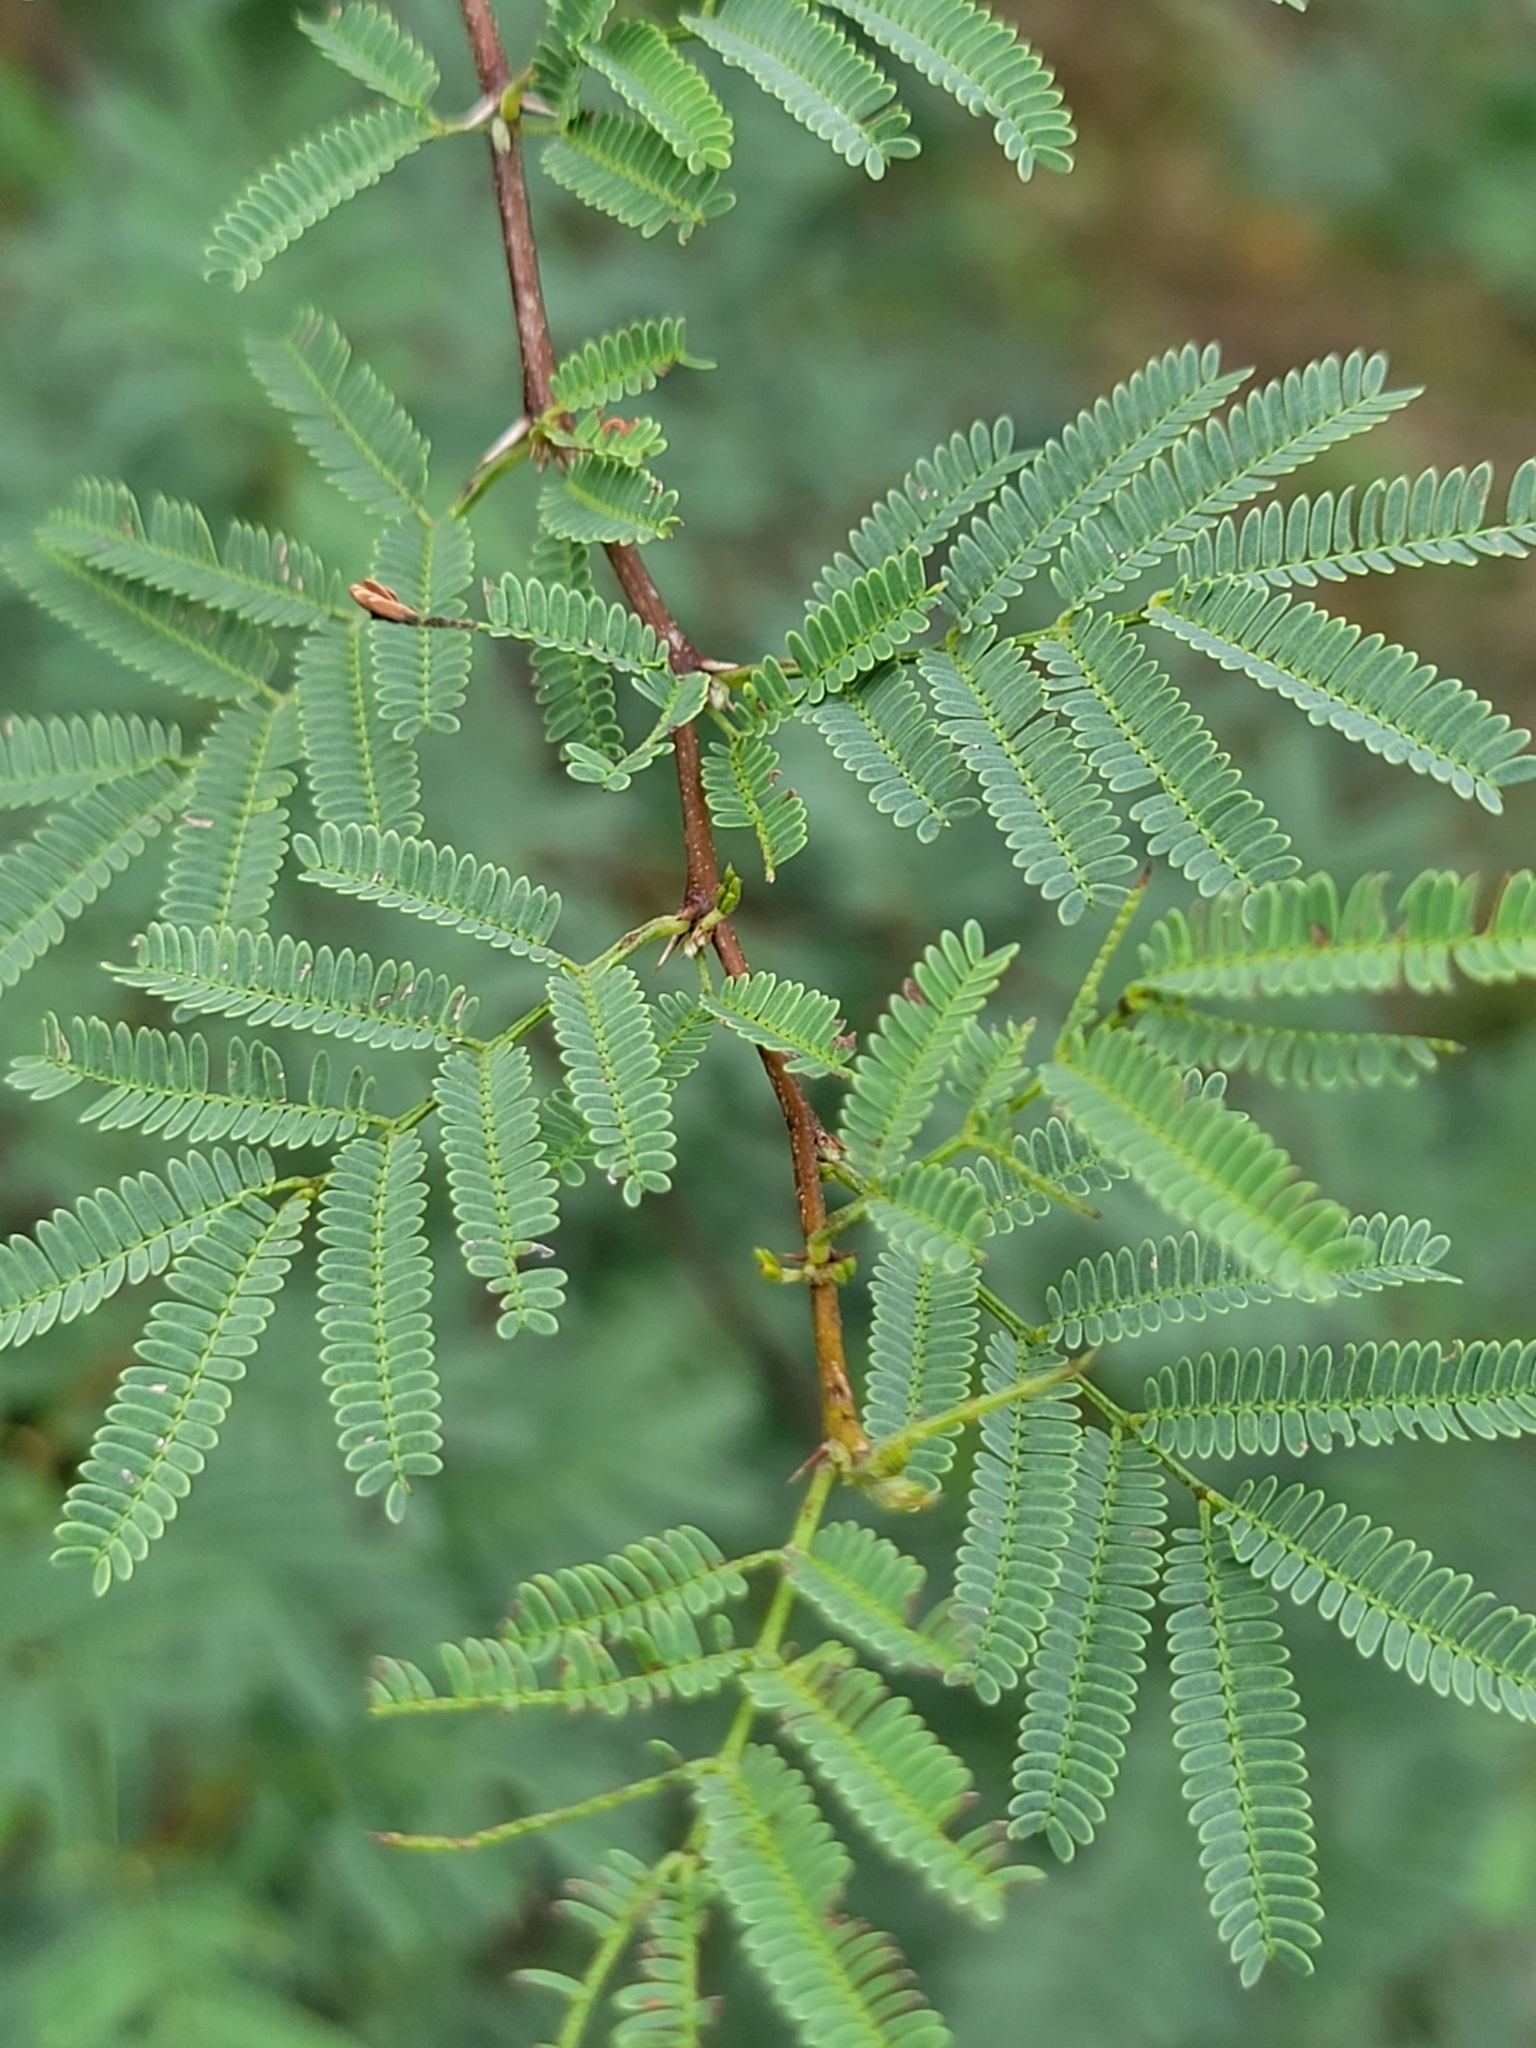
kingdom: Plantae
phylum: Tracheophyta
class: Magnoliopsida
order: Fabales
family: Fabaceae
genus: Vachellia
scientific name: Vachellia farnesiana
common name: Sweet acacia
